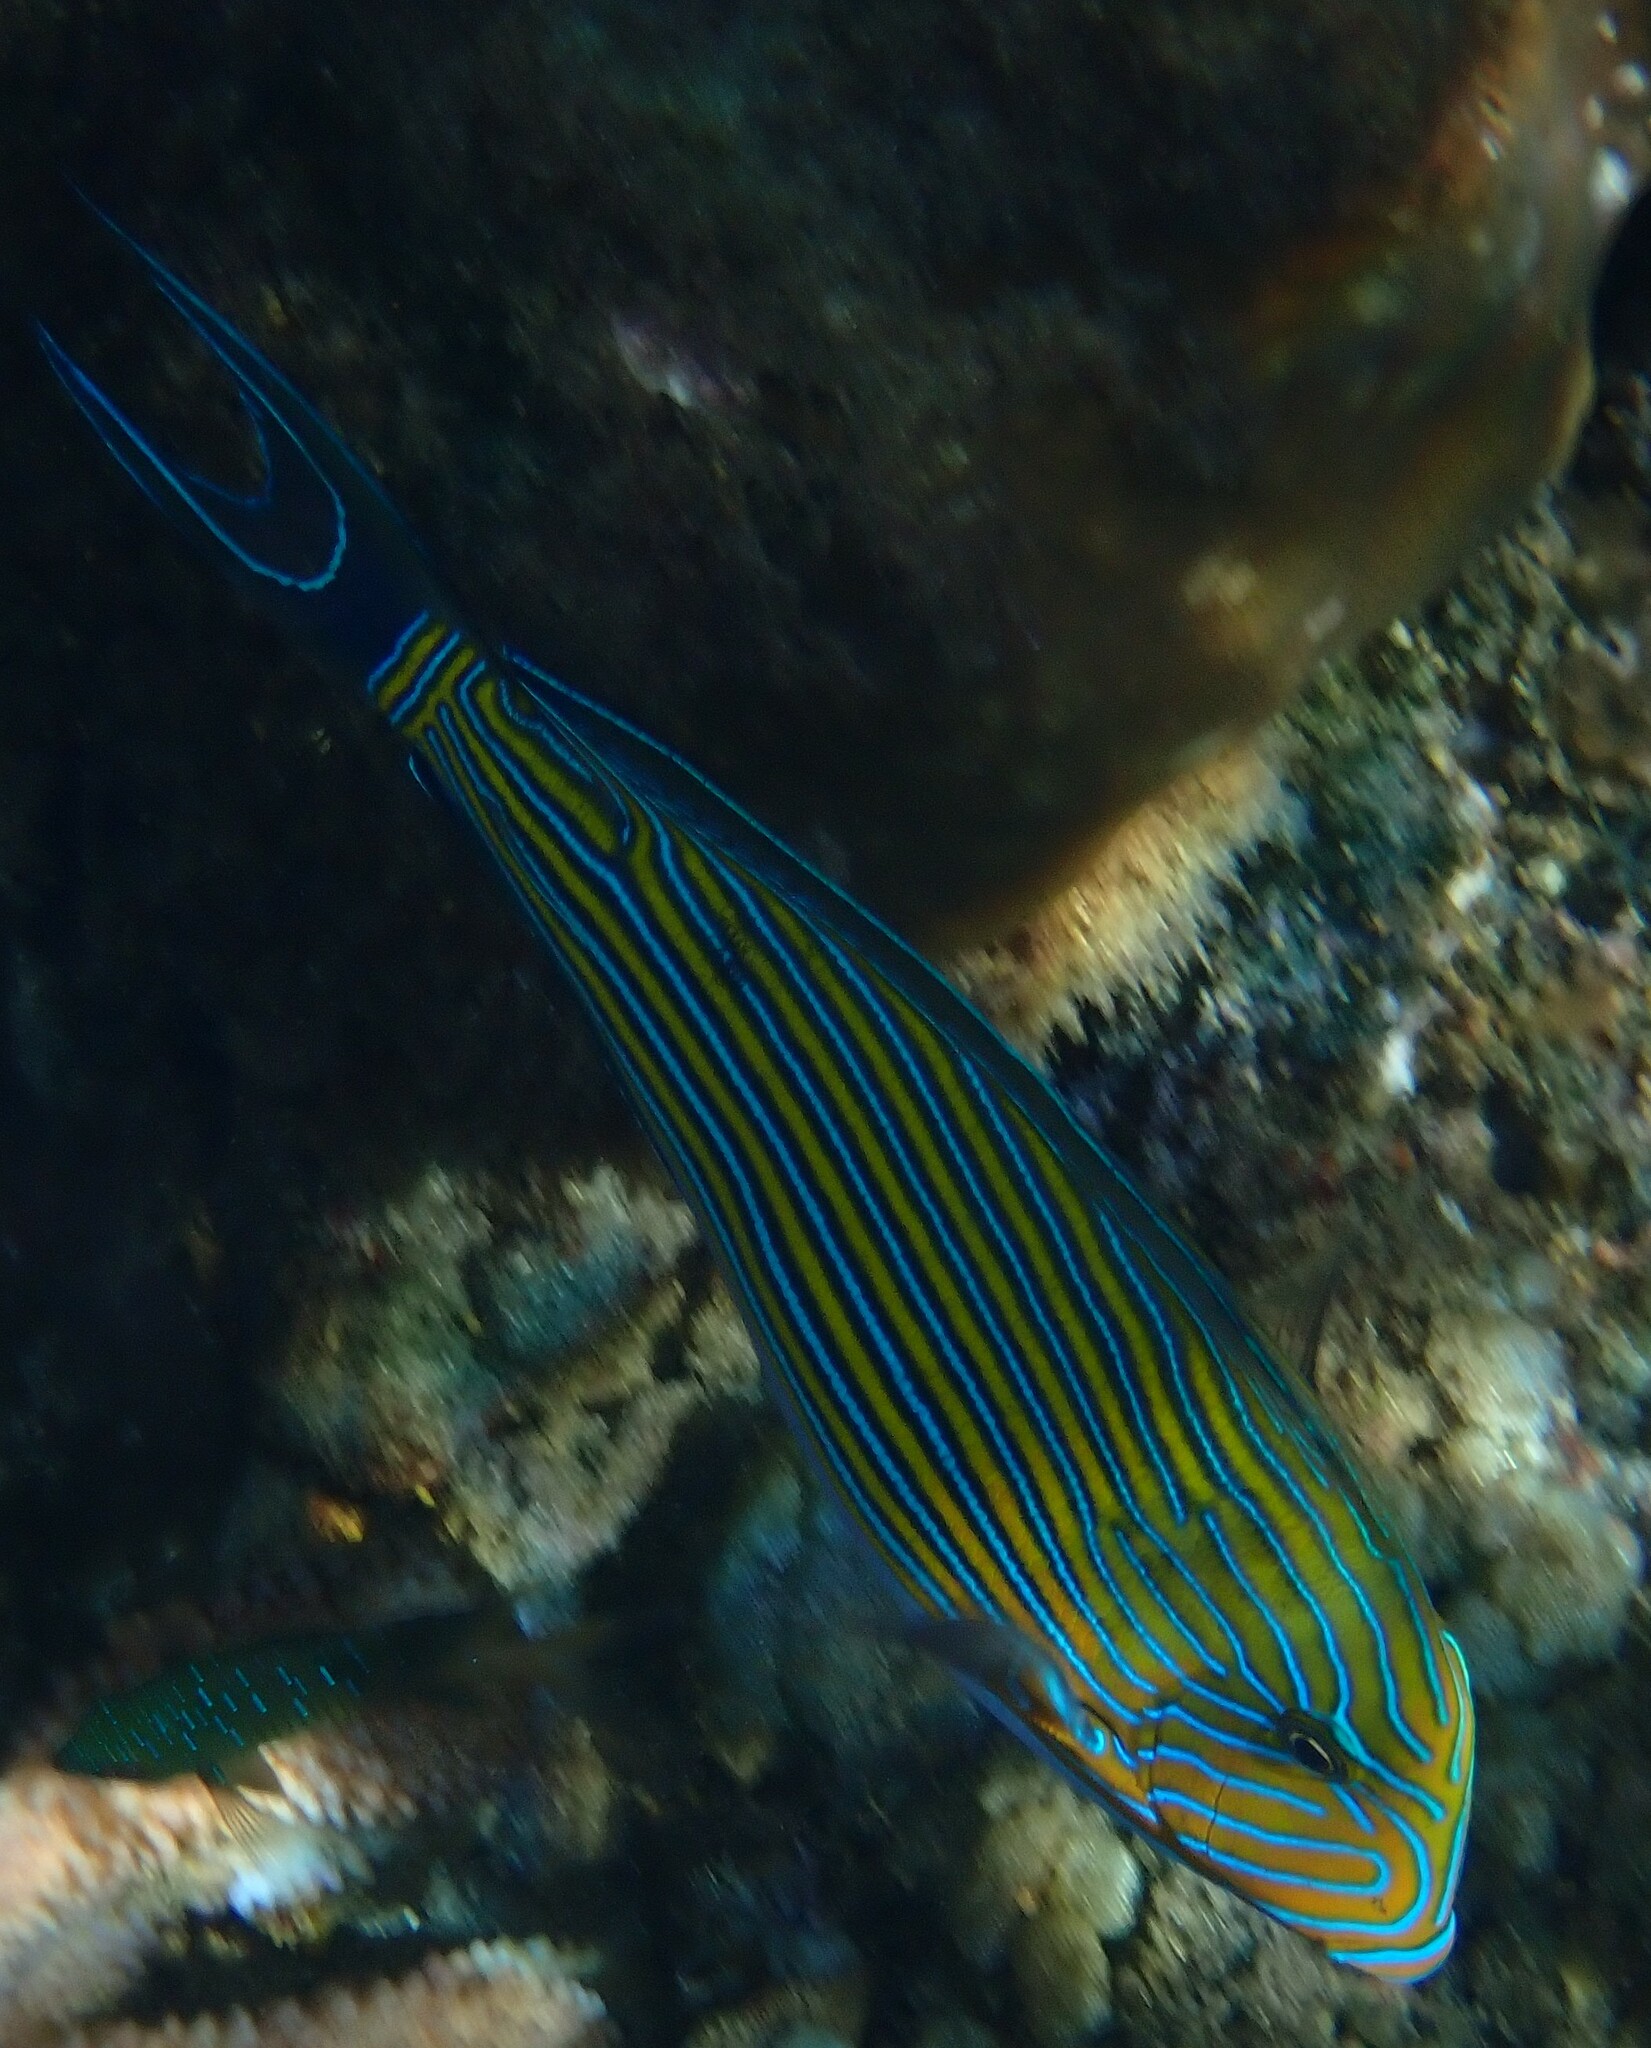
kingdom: Animalia
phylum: Chordata
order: Perciformes
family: Acanthuridae
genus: Acanthurus
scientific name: Acanthurus lineatus
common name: Striped surgeonfish
